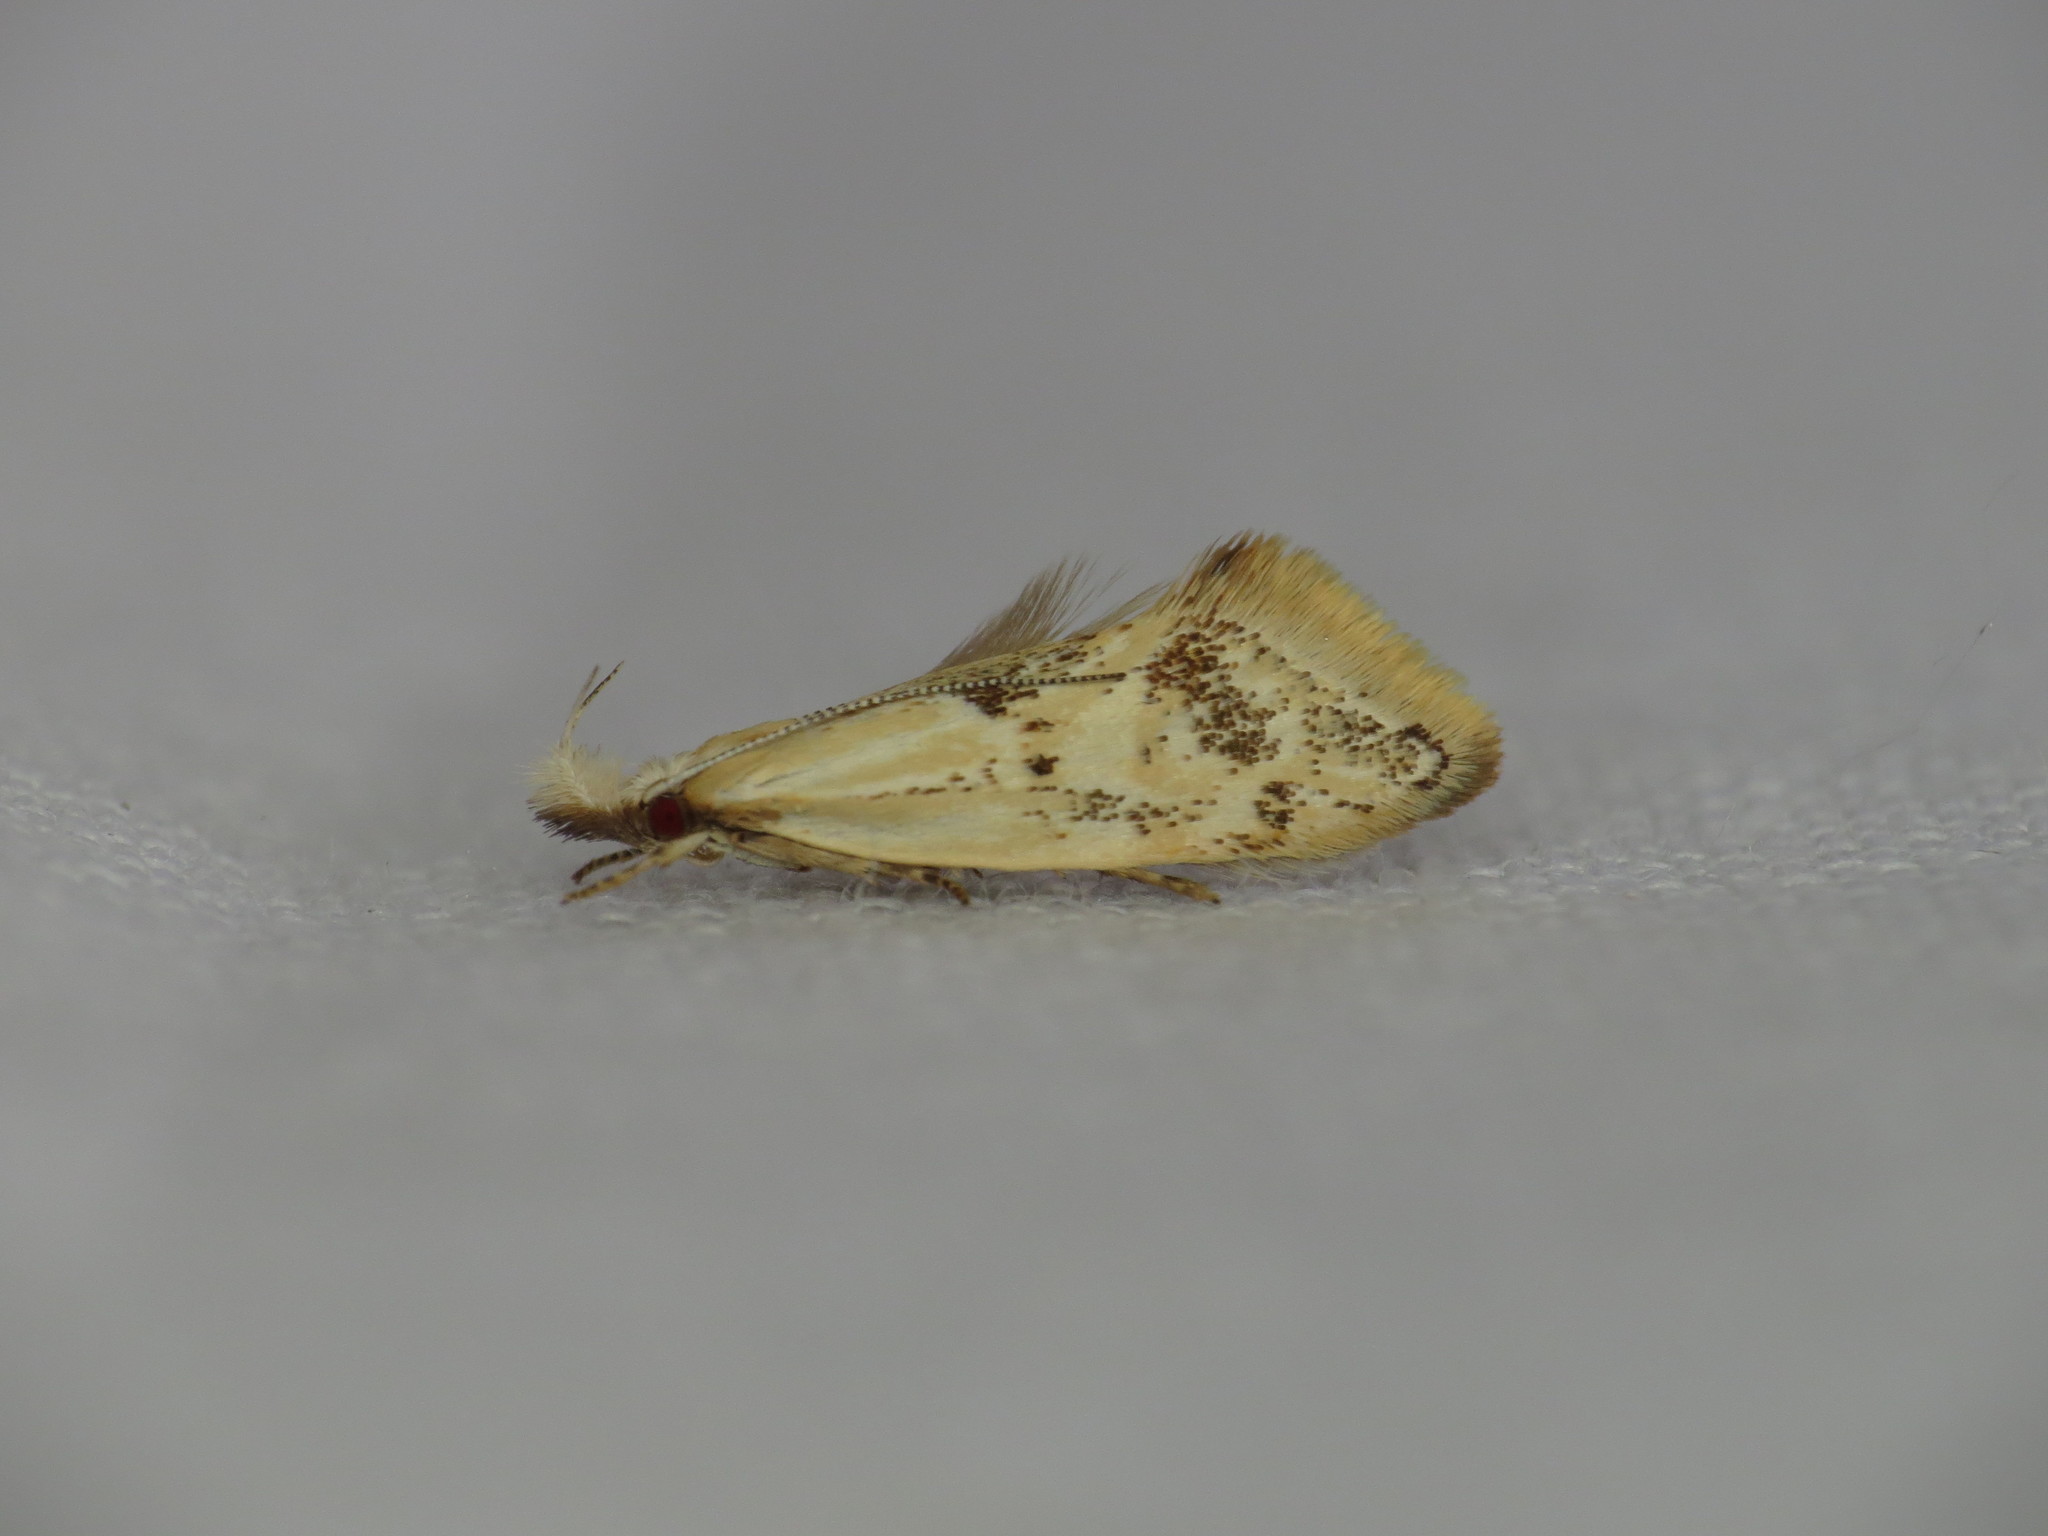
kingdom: Animalia
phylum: Arthropoda
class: Insecta
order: Lepidoptera
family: Oecophoridae
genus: Thema
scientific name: Thema macroscia
